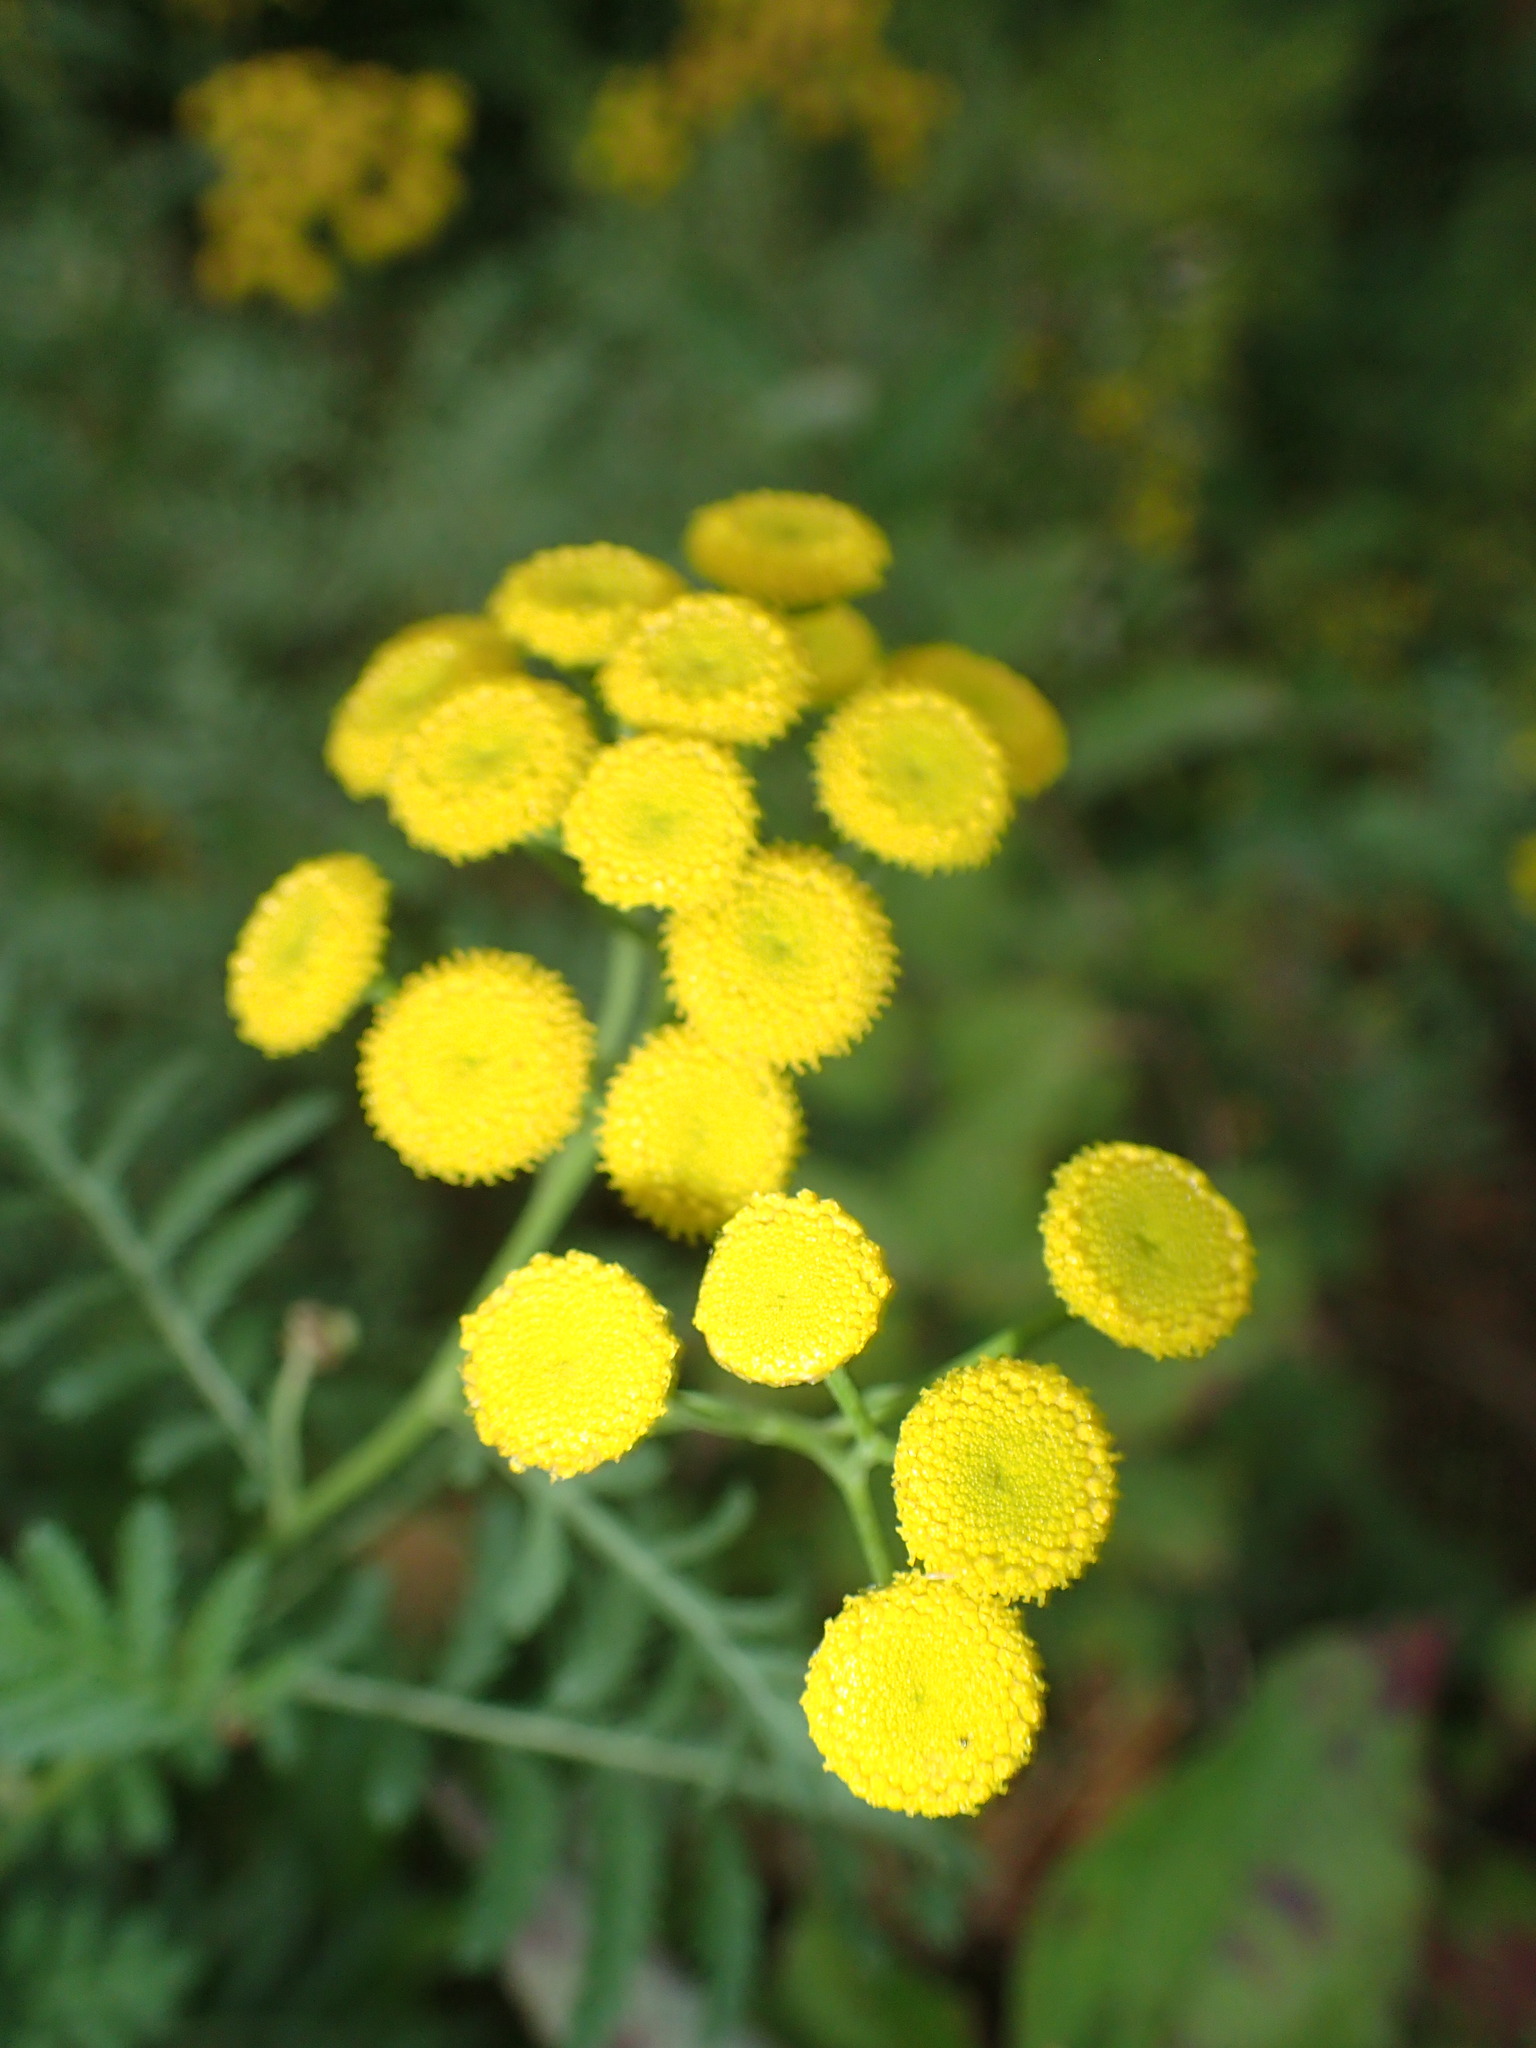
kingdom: Plantae
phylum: Tracheophyta
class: Magnoliopsida
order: Asterales
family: Asteraceae
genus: Tanacetum
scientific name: Tanacetum vulgare
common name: Common tansy
